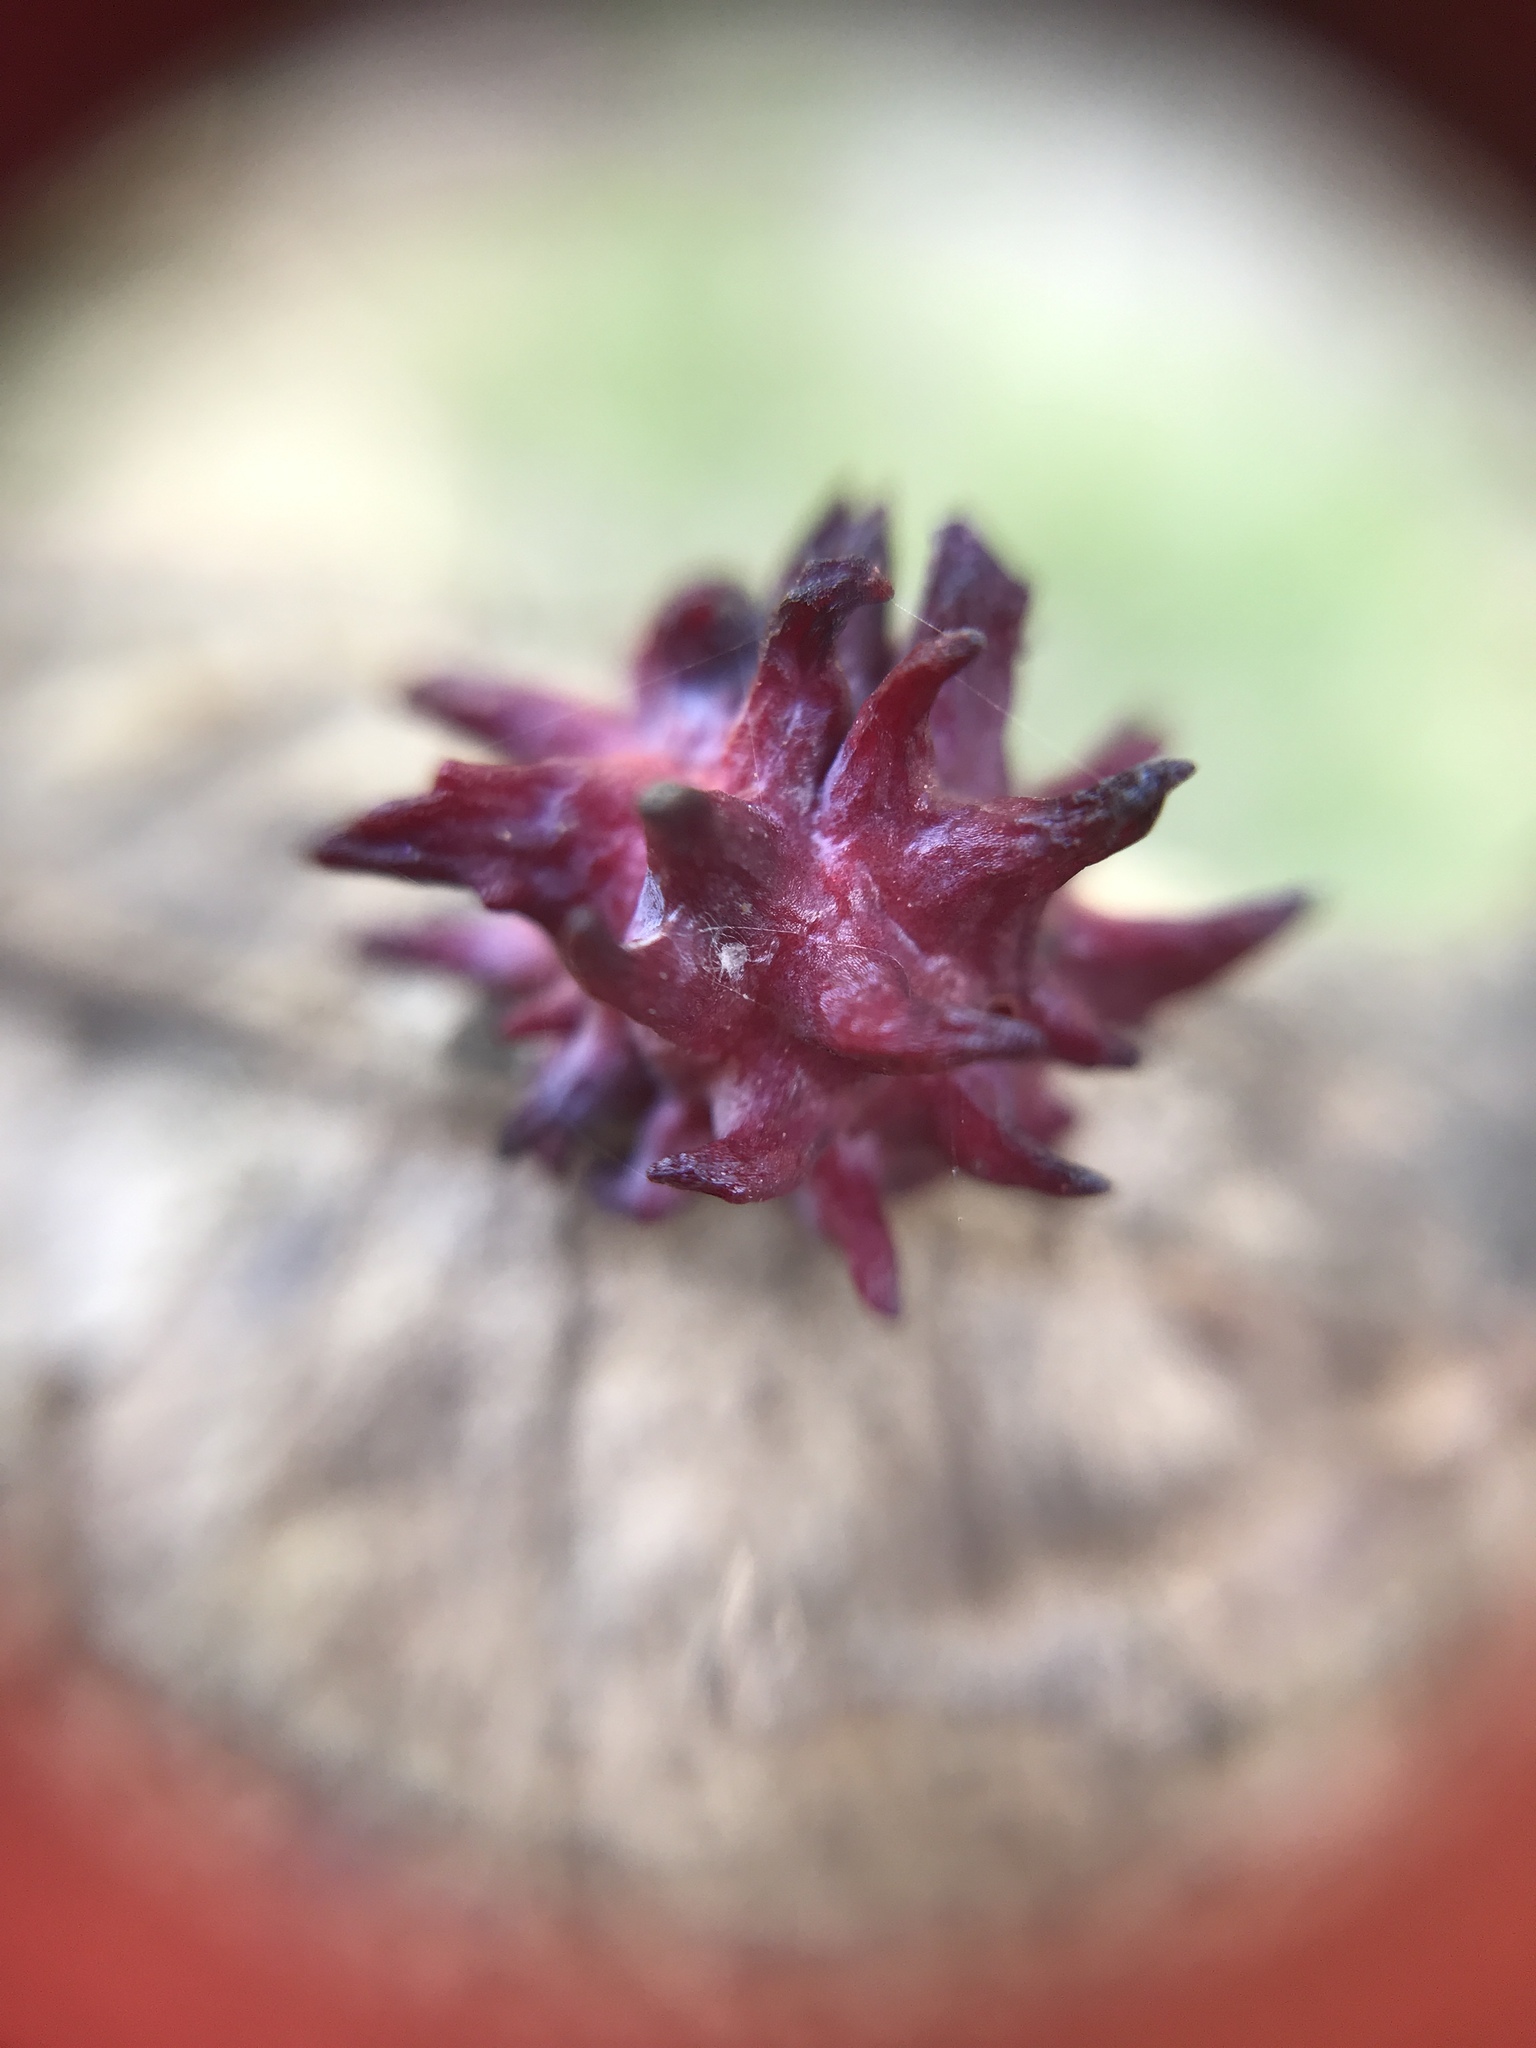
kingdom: Animalia
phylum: Arthropoda
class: Insecta
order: Hymenoptera
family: Cynipidae
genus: Cynips
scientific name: Cynips
